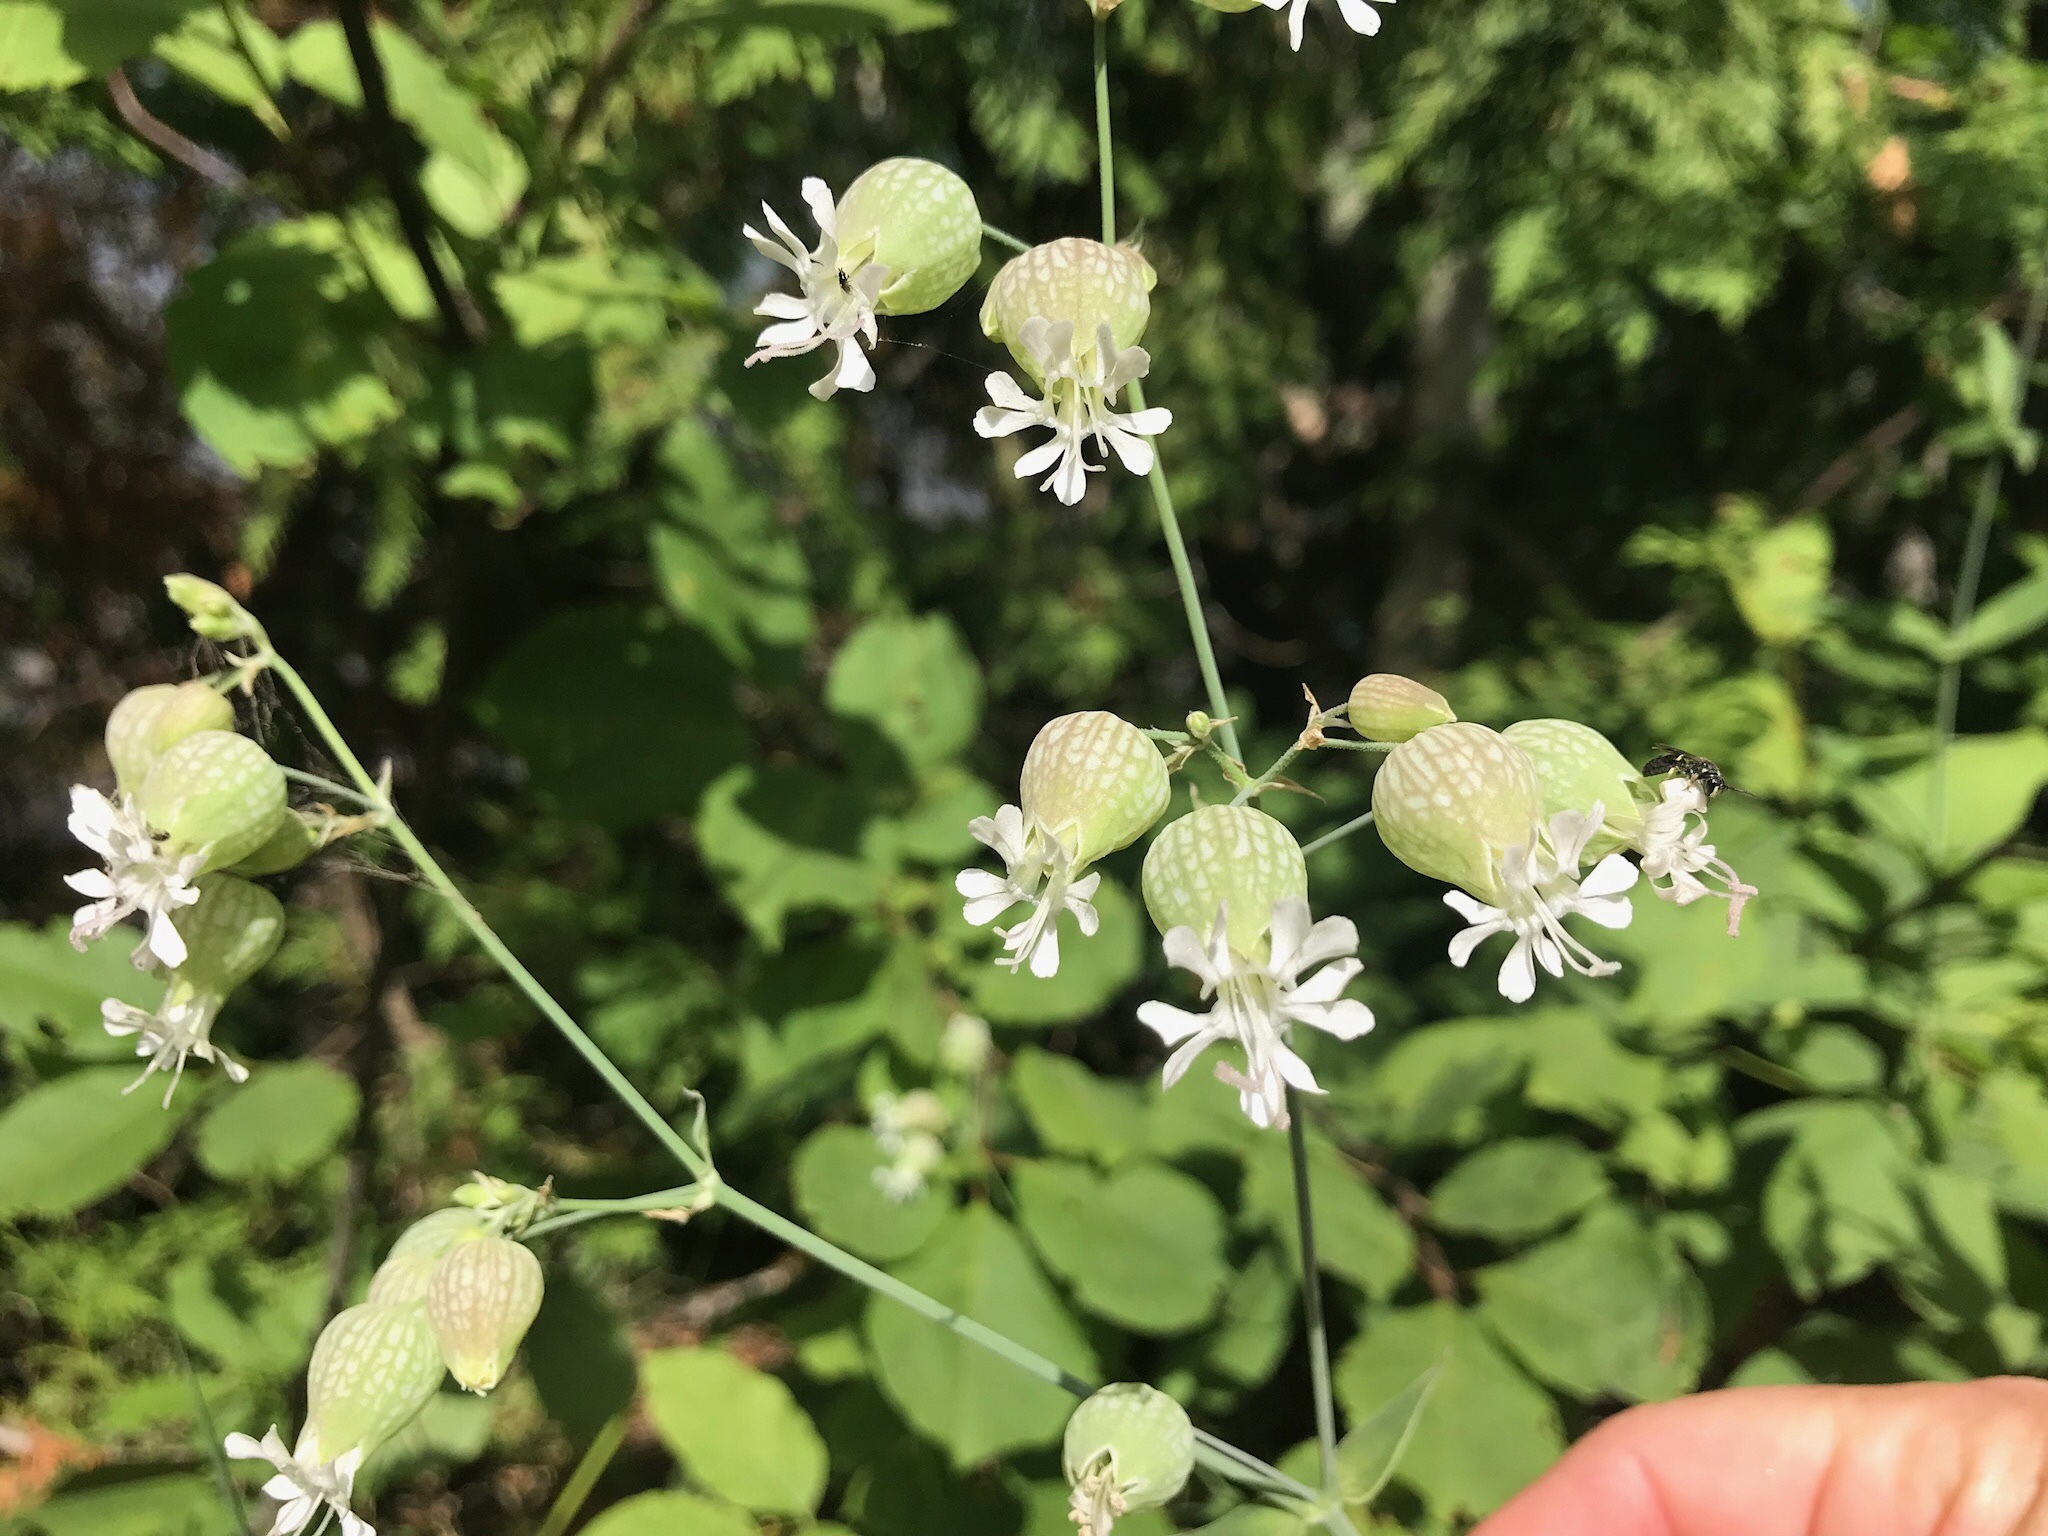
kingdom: Plantae
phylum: Tracheophyta
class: Magnoliopsida
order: Caryophyllales
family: Caryophyllaceae
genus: Silene
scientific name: Silene vulgaris
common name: Bladder campion
